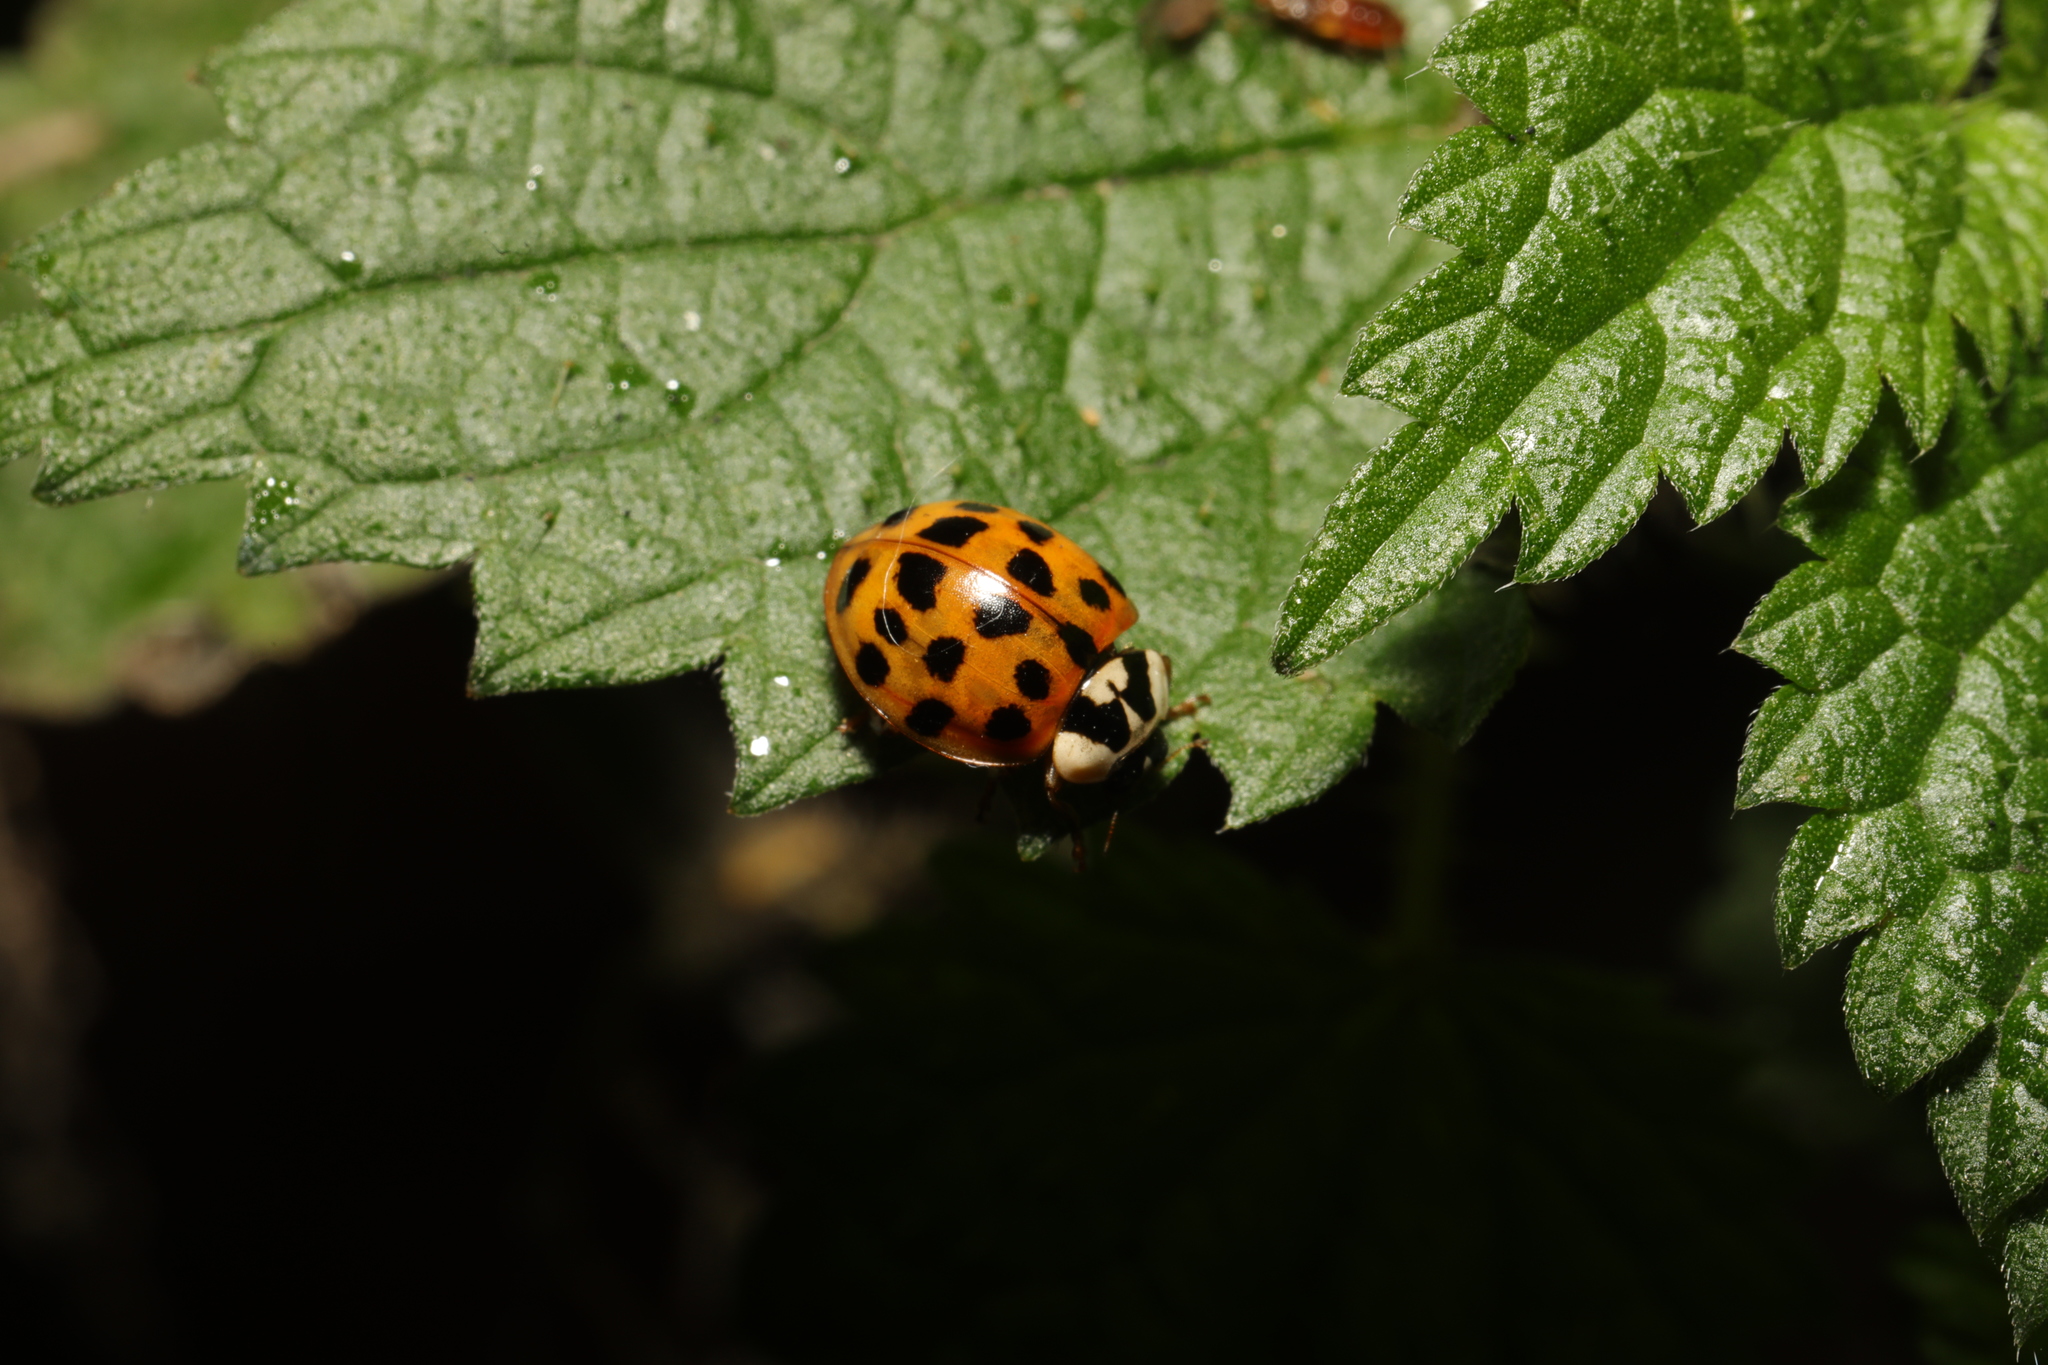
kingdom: Animalia
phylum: Arthropoda
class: Insecta
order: Coleoptera
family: Coccinellidae
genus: Harmonia
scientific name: Harmonia axyridis
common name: Harlequin ladybird
